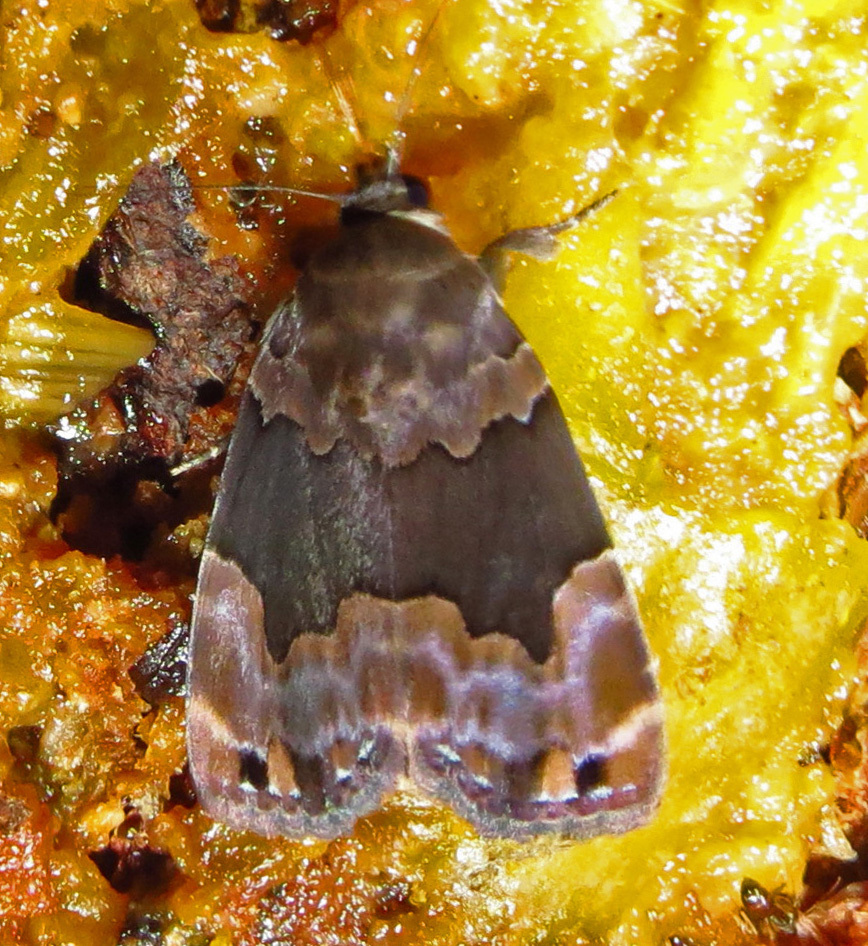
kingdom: Animalia
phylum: Arthropoda
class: Insecta
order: Lepidoptera
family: Erebidae
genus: Dinumma
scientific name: Dinumma deponens
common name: Purplish moth
